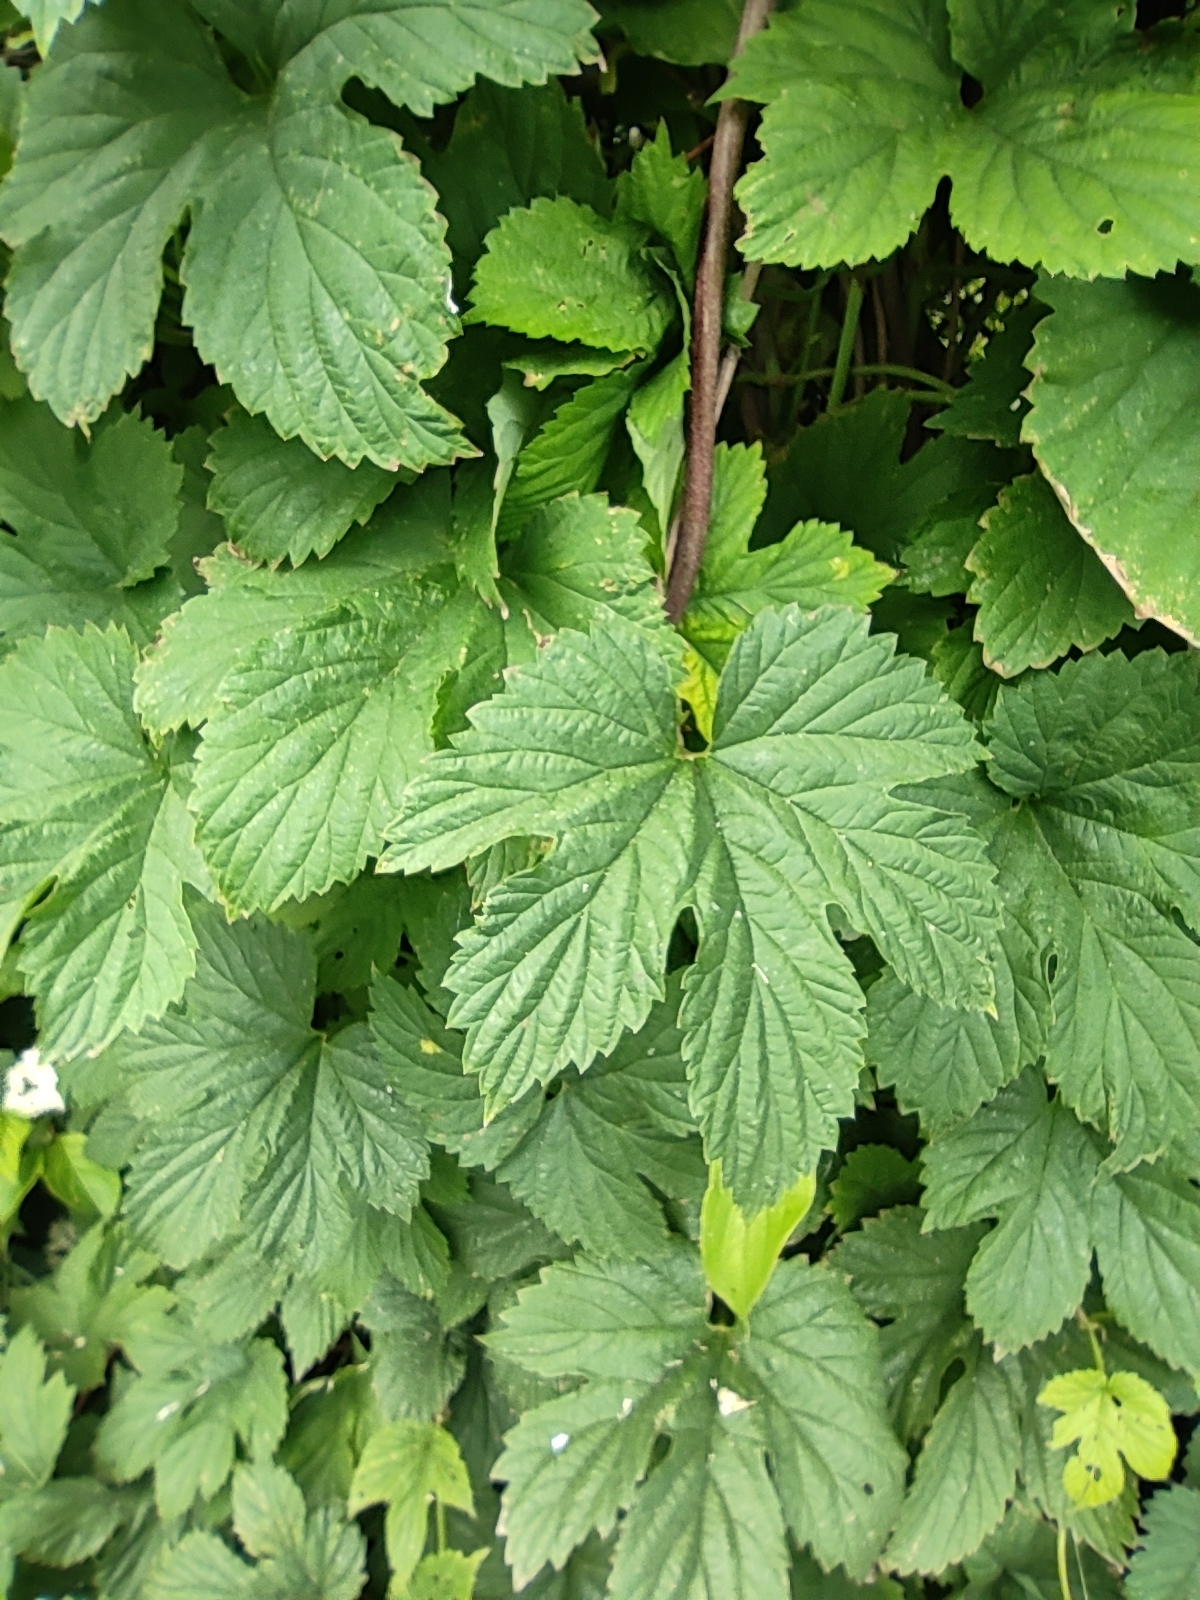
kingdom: Plantae
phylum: Tracheophyta
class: Magnoliopsida
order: Rosales
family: Cannabaceae
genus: Humulus
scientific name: Humulus lupulus
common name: Hop
